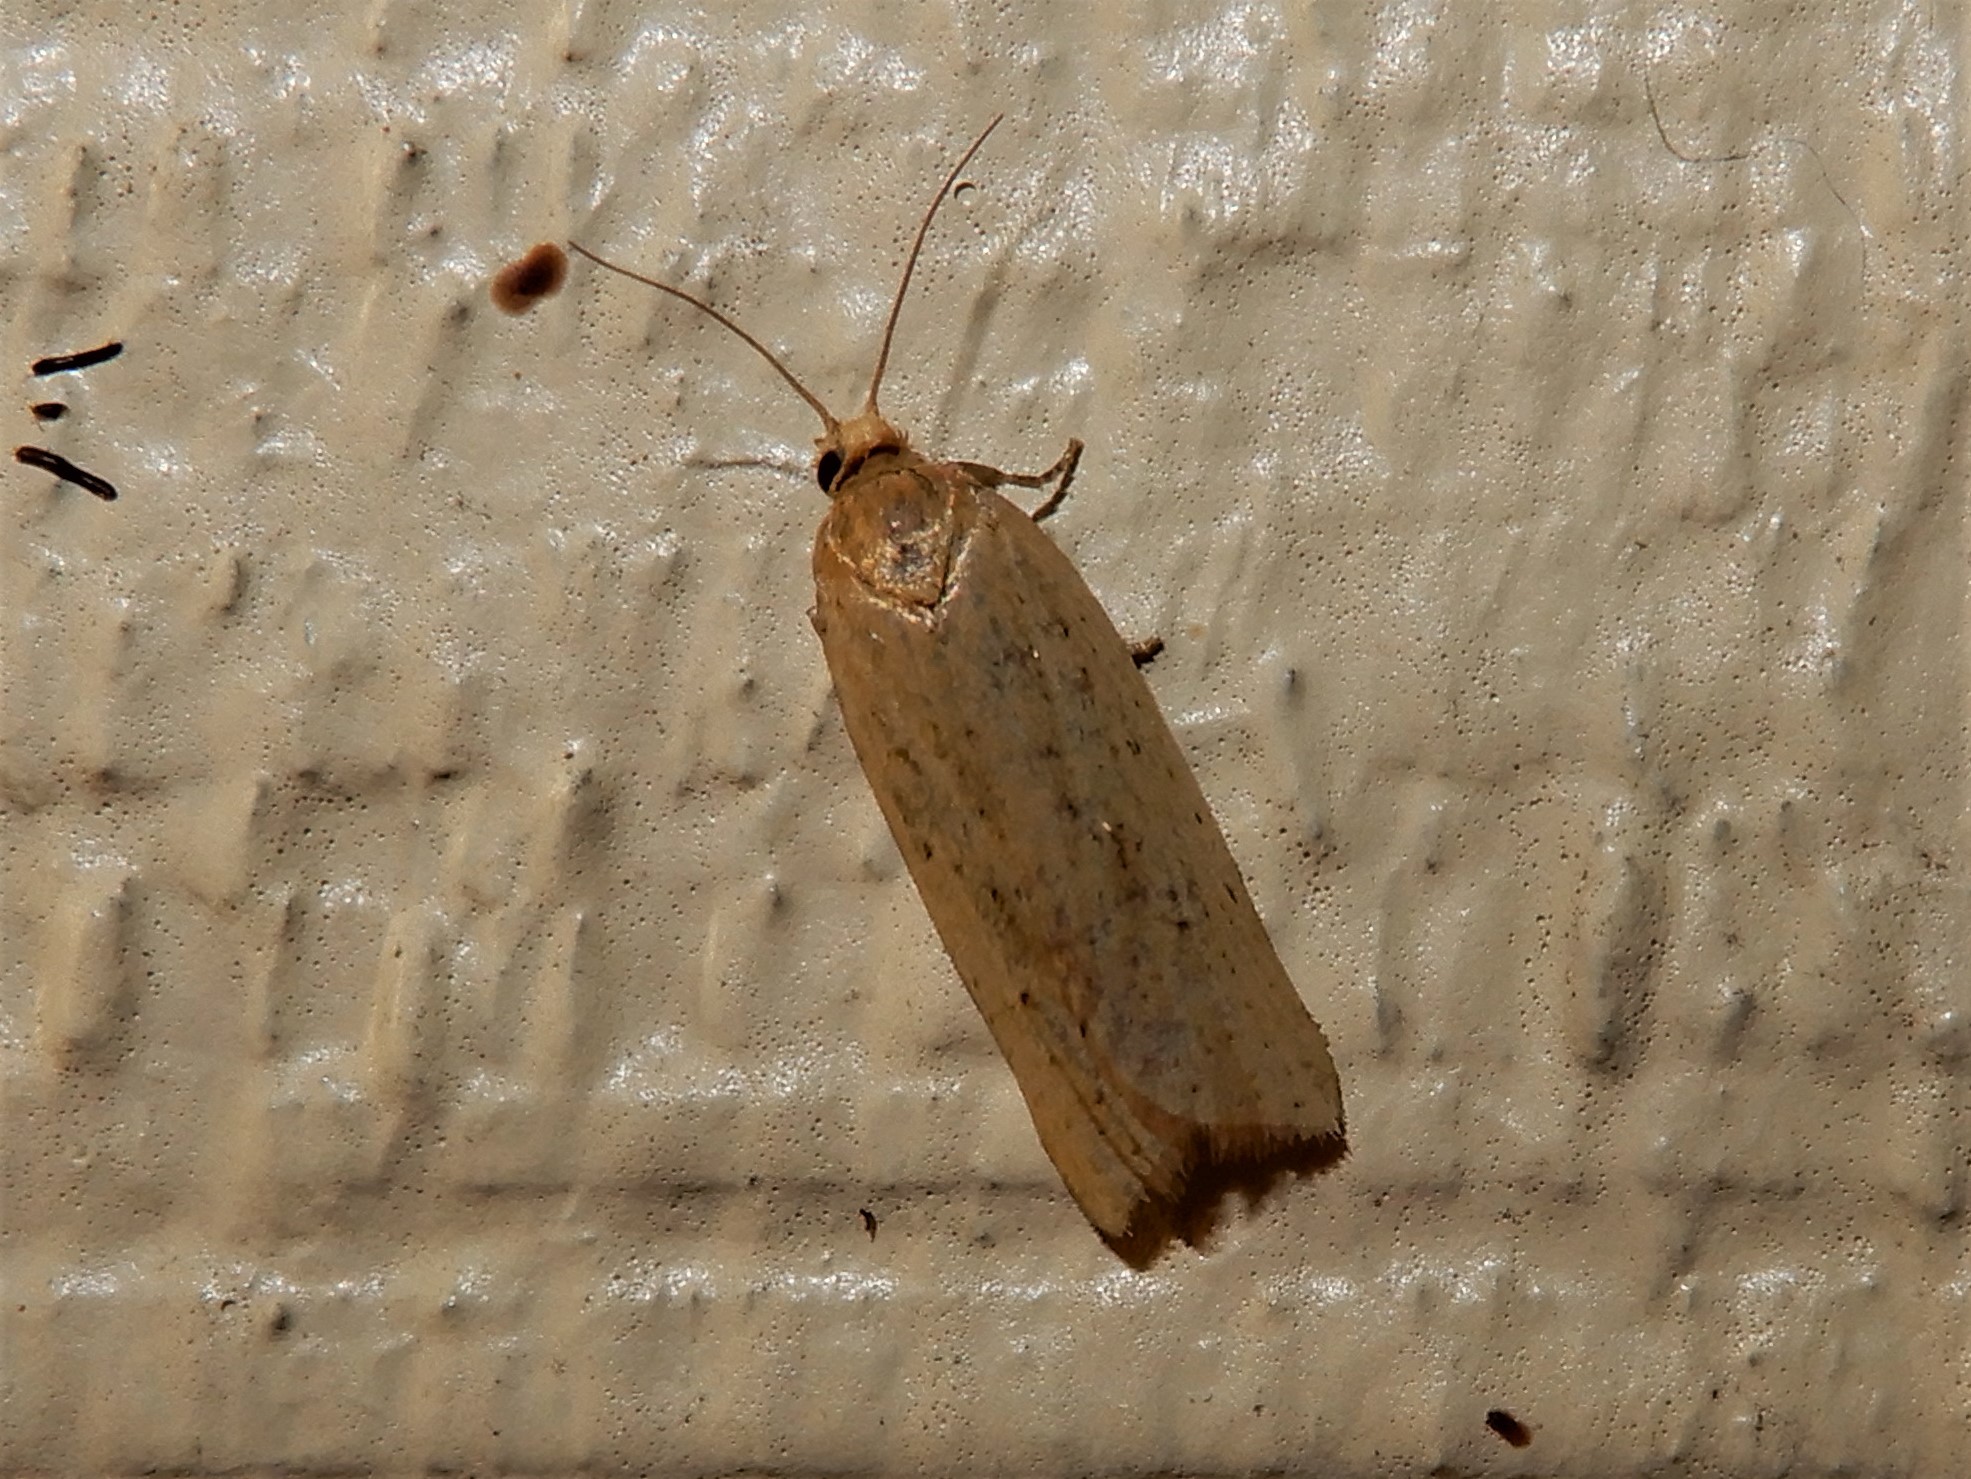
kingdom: Animalia
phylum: Arthropoda
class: Insecta
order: Lepidoptera
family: Tortricidae
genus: Clepsis
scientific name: Clepsis
